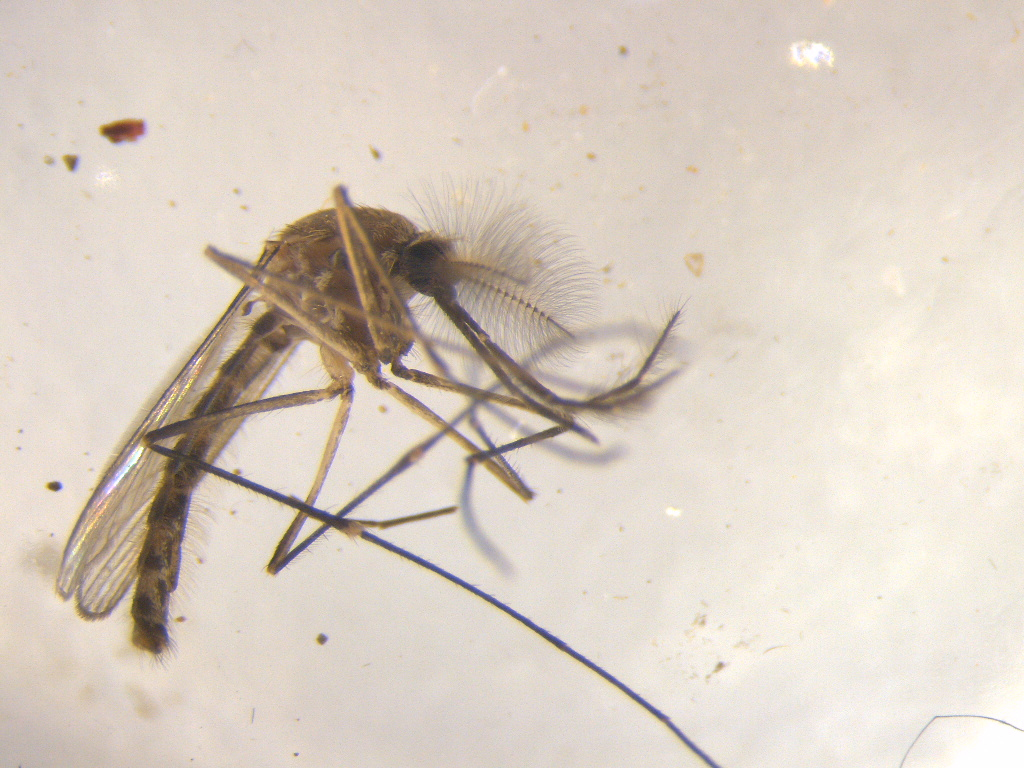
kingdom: Animalia
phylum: Arthropoda
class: Insecta
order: Diptera
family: Culicidae
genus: Culex
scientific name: Culex pervigilans
